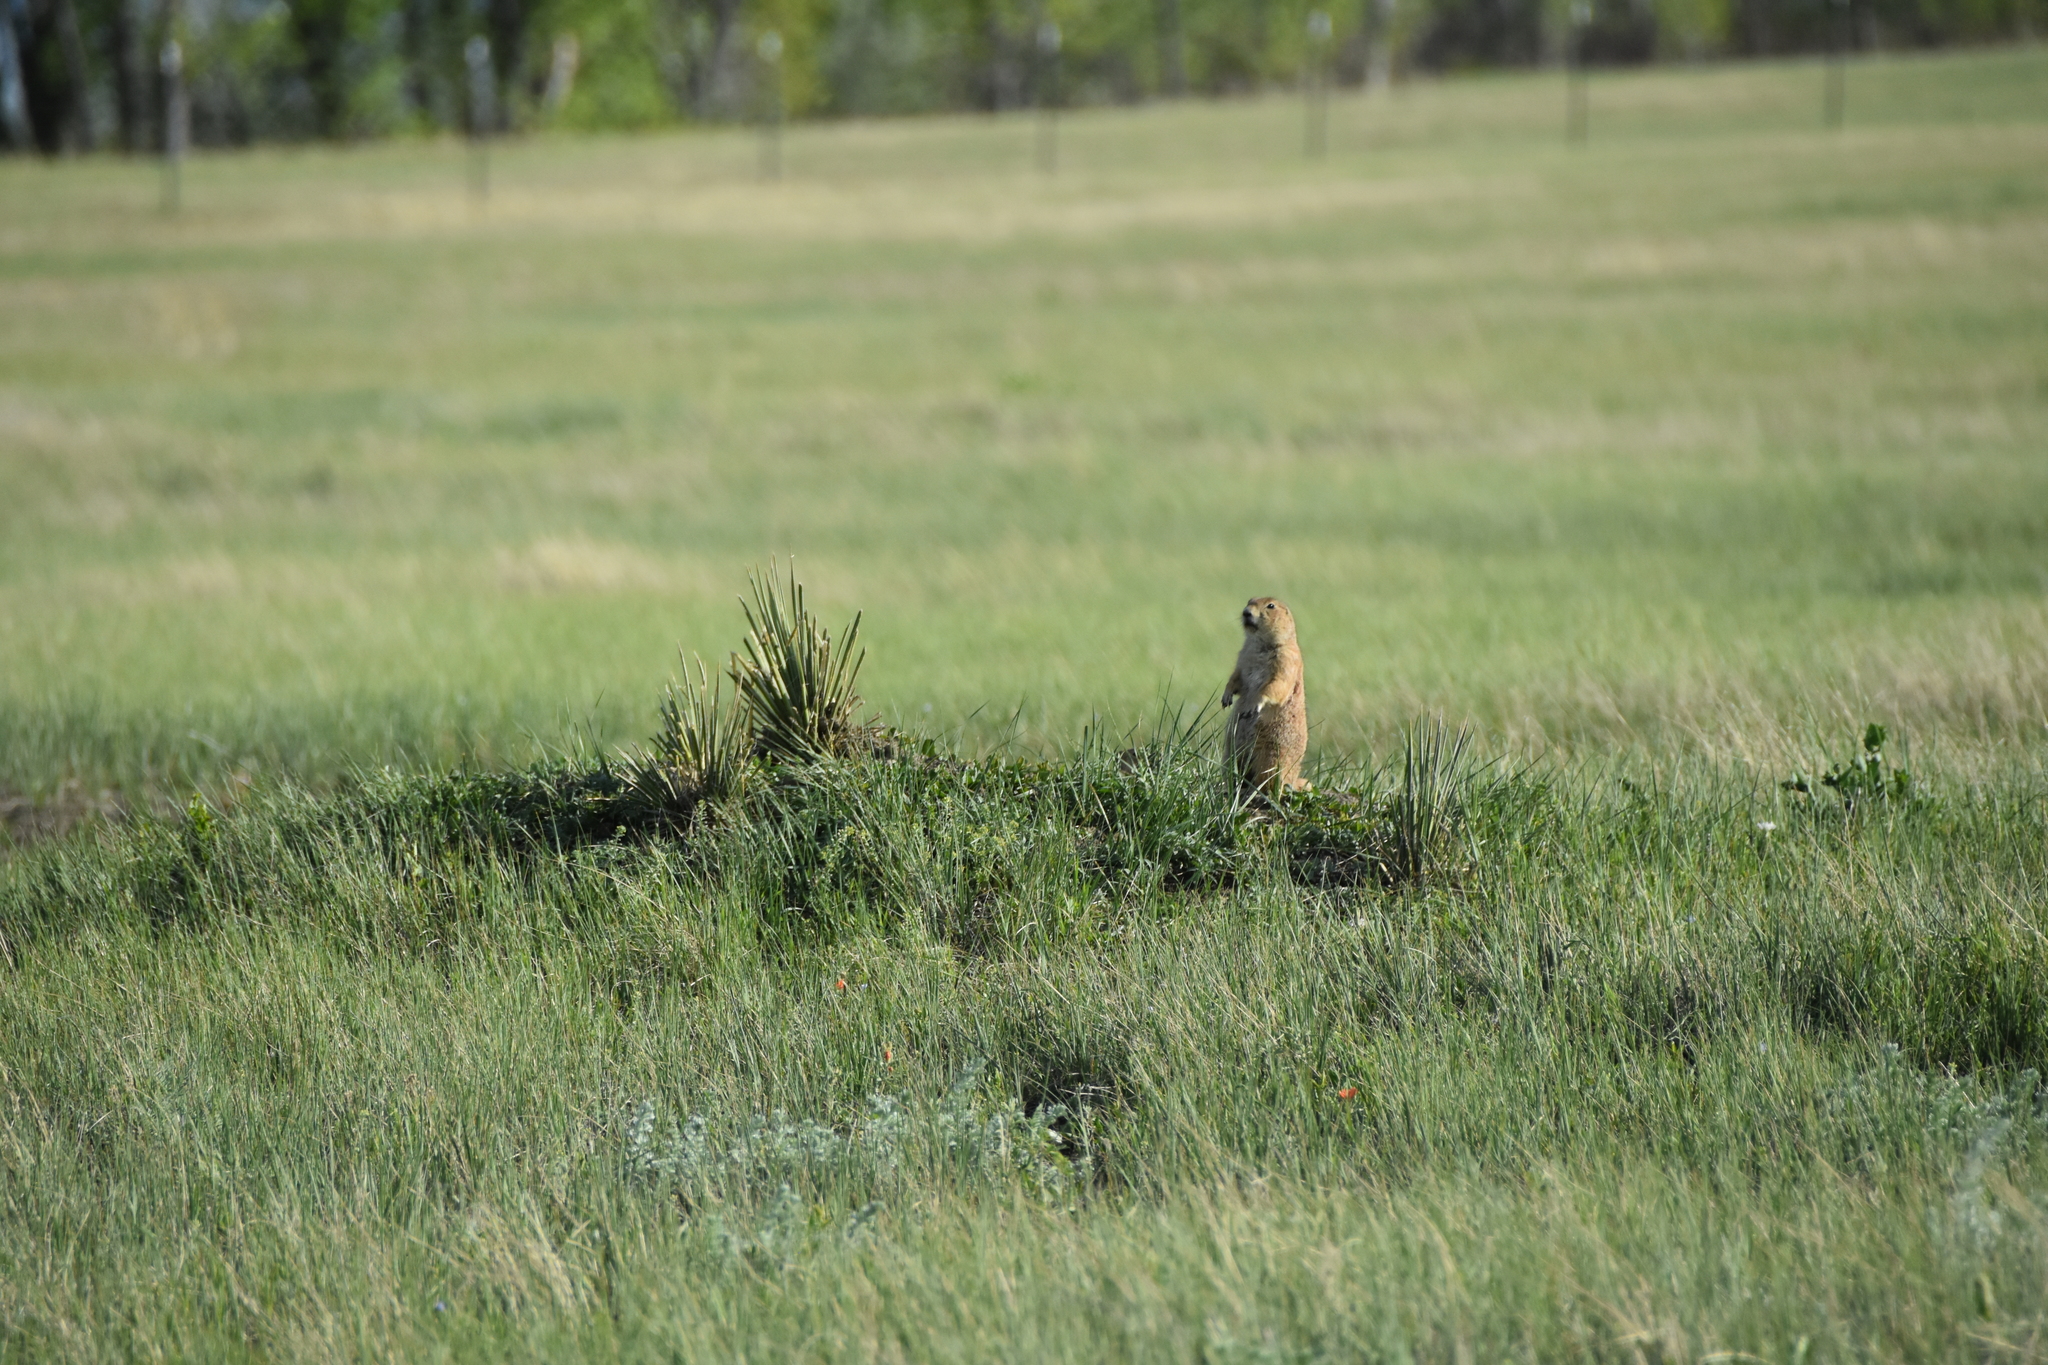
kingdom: Animalia
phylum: Chordata
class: Mammalia
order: Rodentia
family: Sciuridae
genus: Cynomys
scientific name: Cynomys ludovicianus
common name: Black-tailed prairie dog
